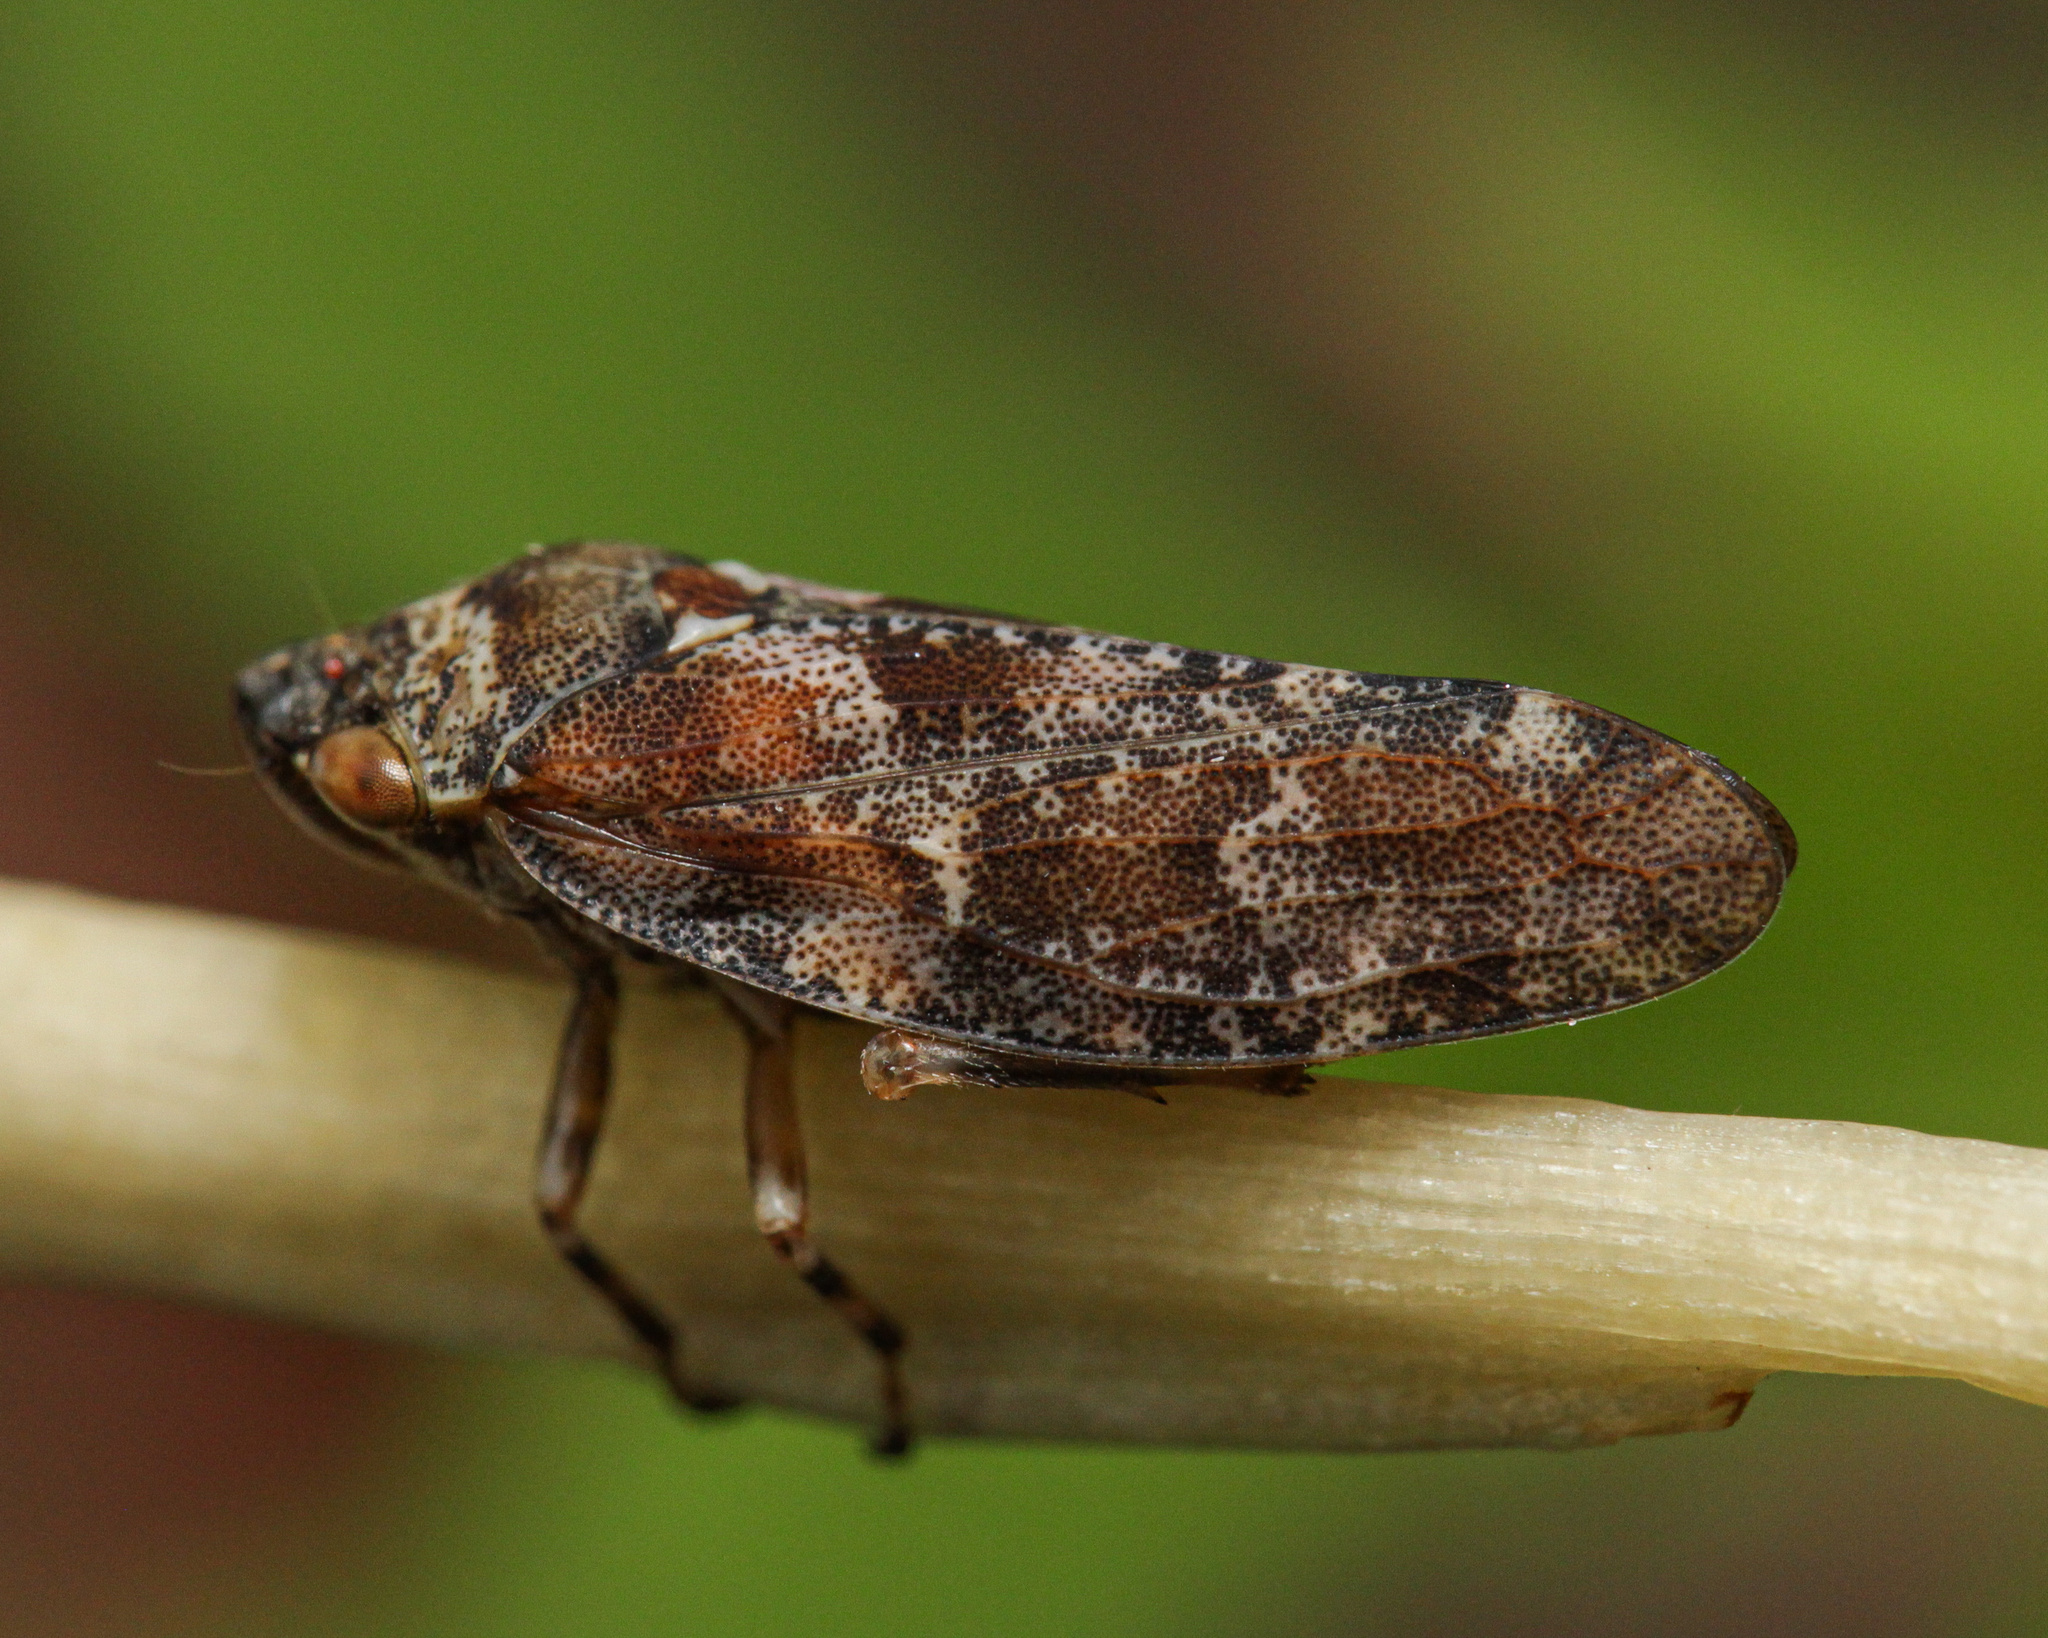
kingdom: Animalia
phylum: Arthropoda
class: Insecta
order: Hemiptera
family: Aphrophoridae
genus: Aphrophora
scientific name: Aphrophora corticea
